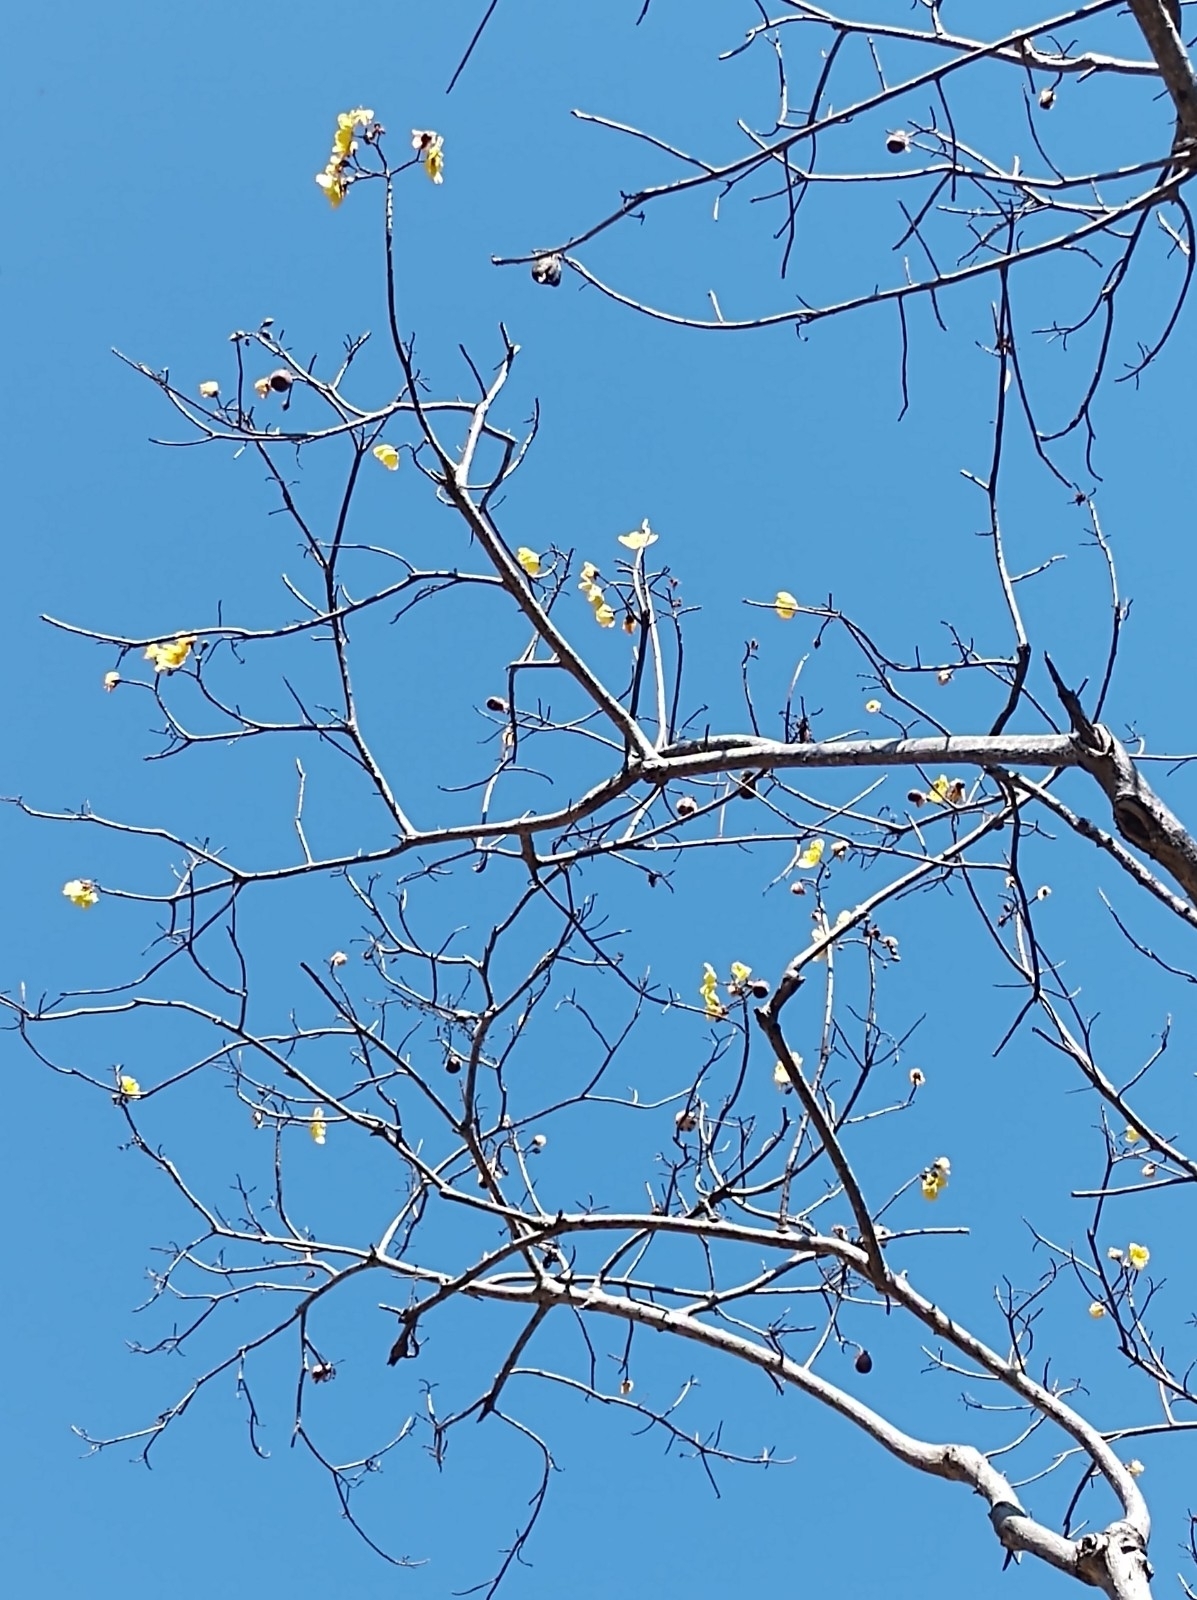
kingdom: Plantae
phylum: Tracheophyta
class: Magnoliopsida
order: Malvales
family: Cochlospermaceae
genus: Cochlospermum
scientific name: Cochlospermum vitifolium
